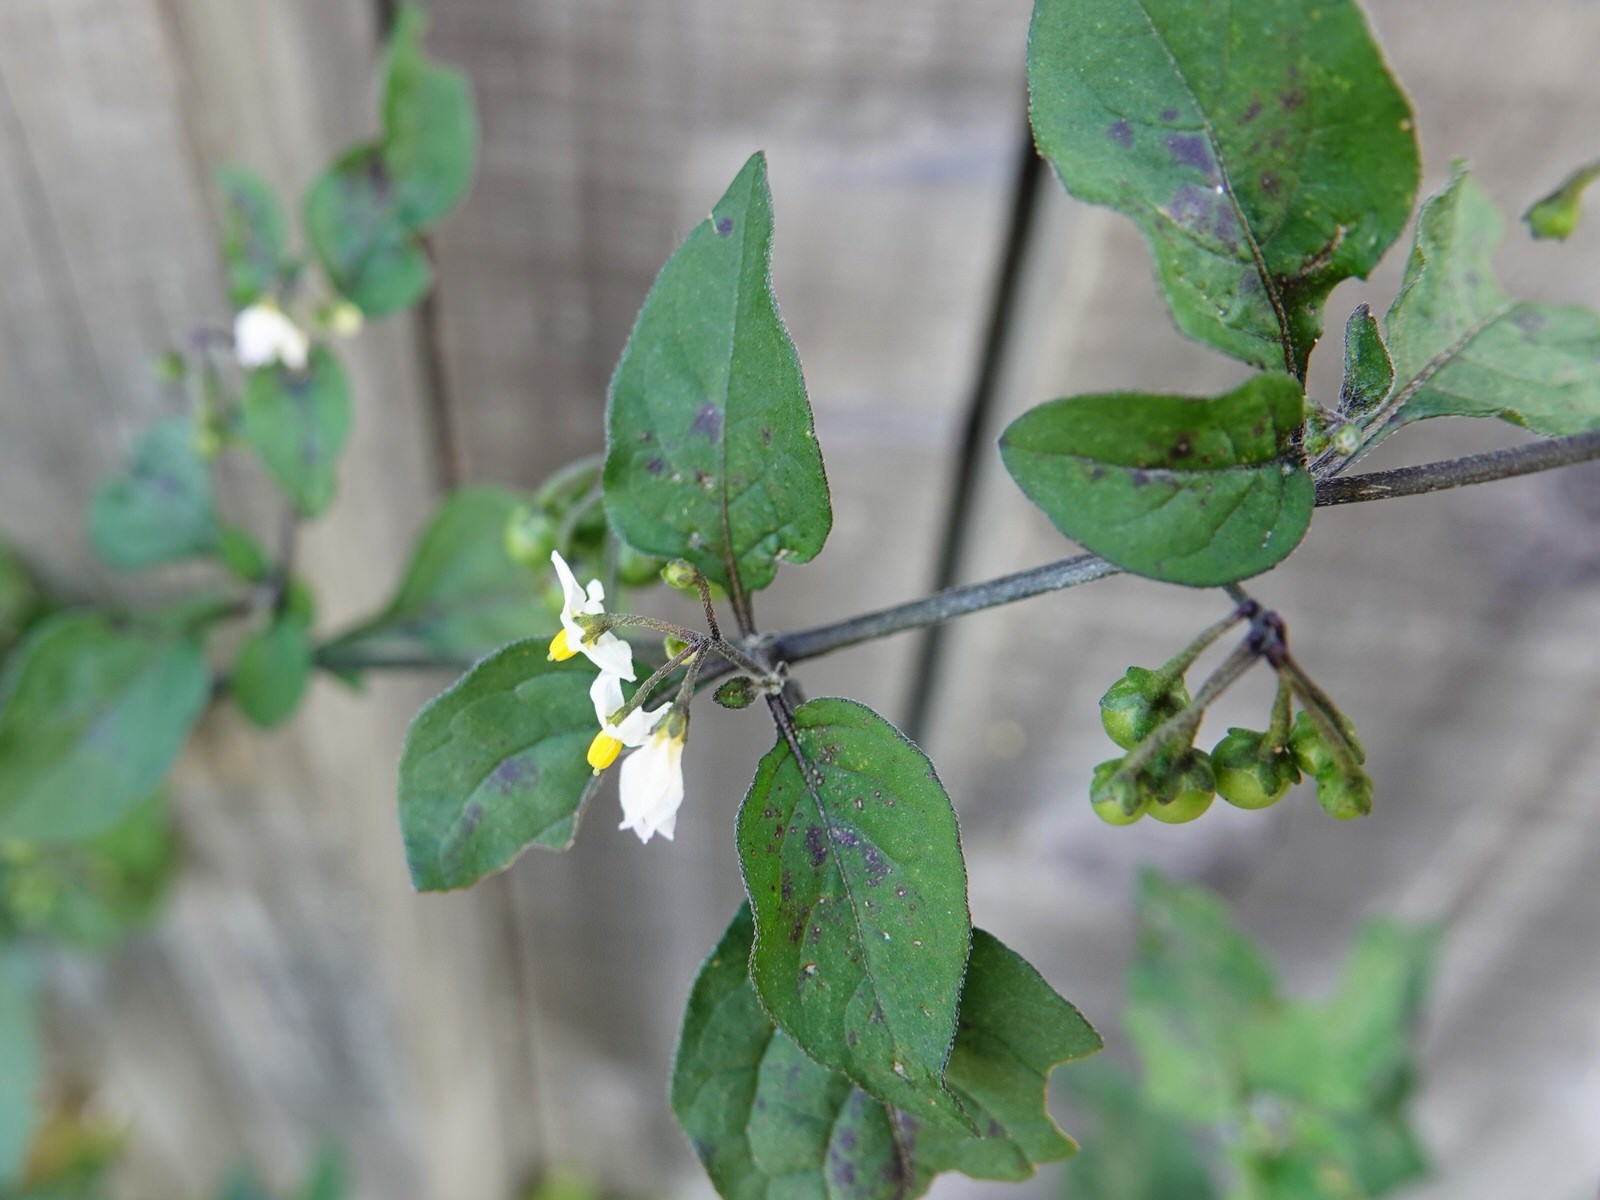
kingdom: Plantae
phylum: Tracheophyta
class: Magnoliopsida
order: Solanales
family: Solanaceae
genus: Solanum
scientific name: Solanum nigrum
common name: Black nightshade
